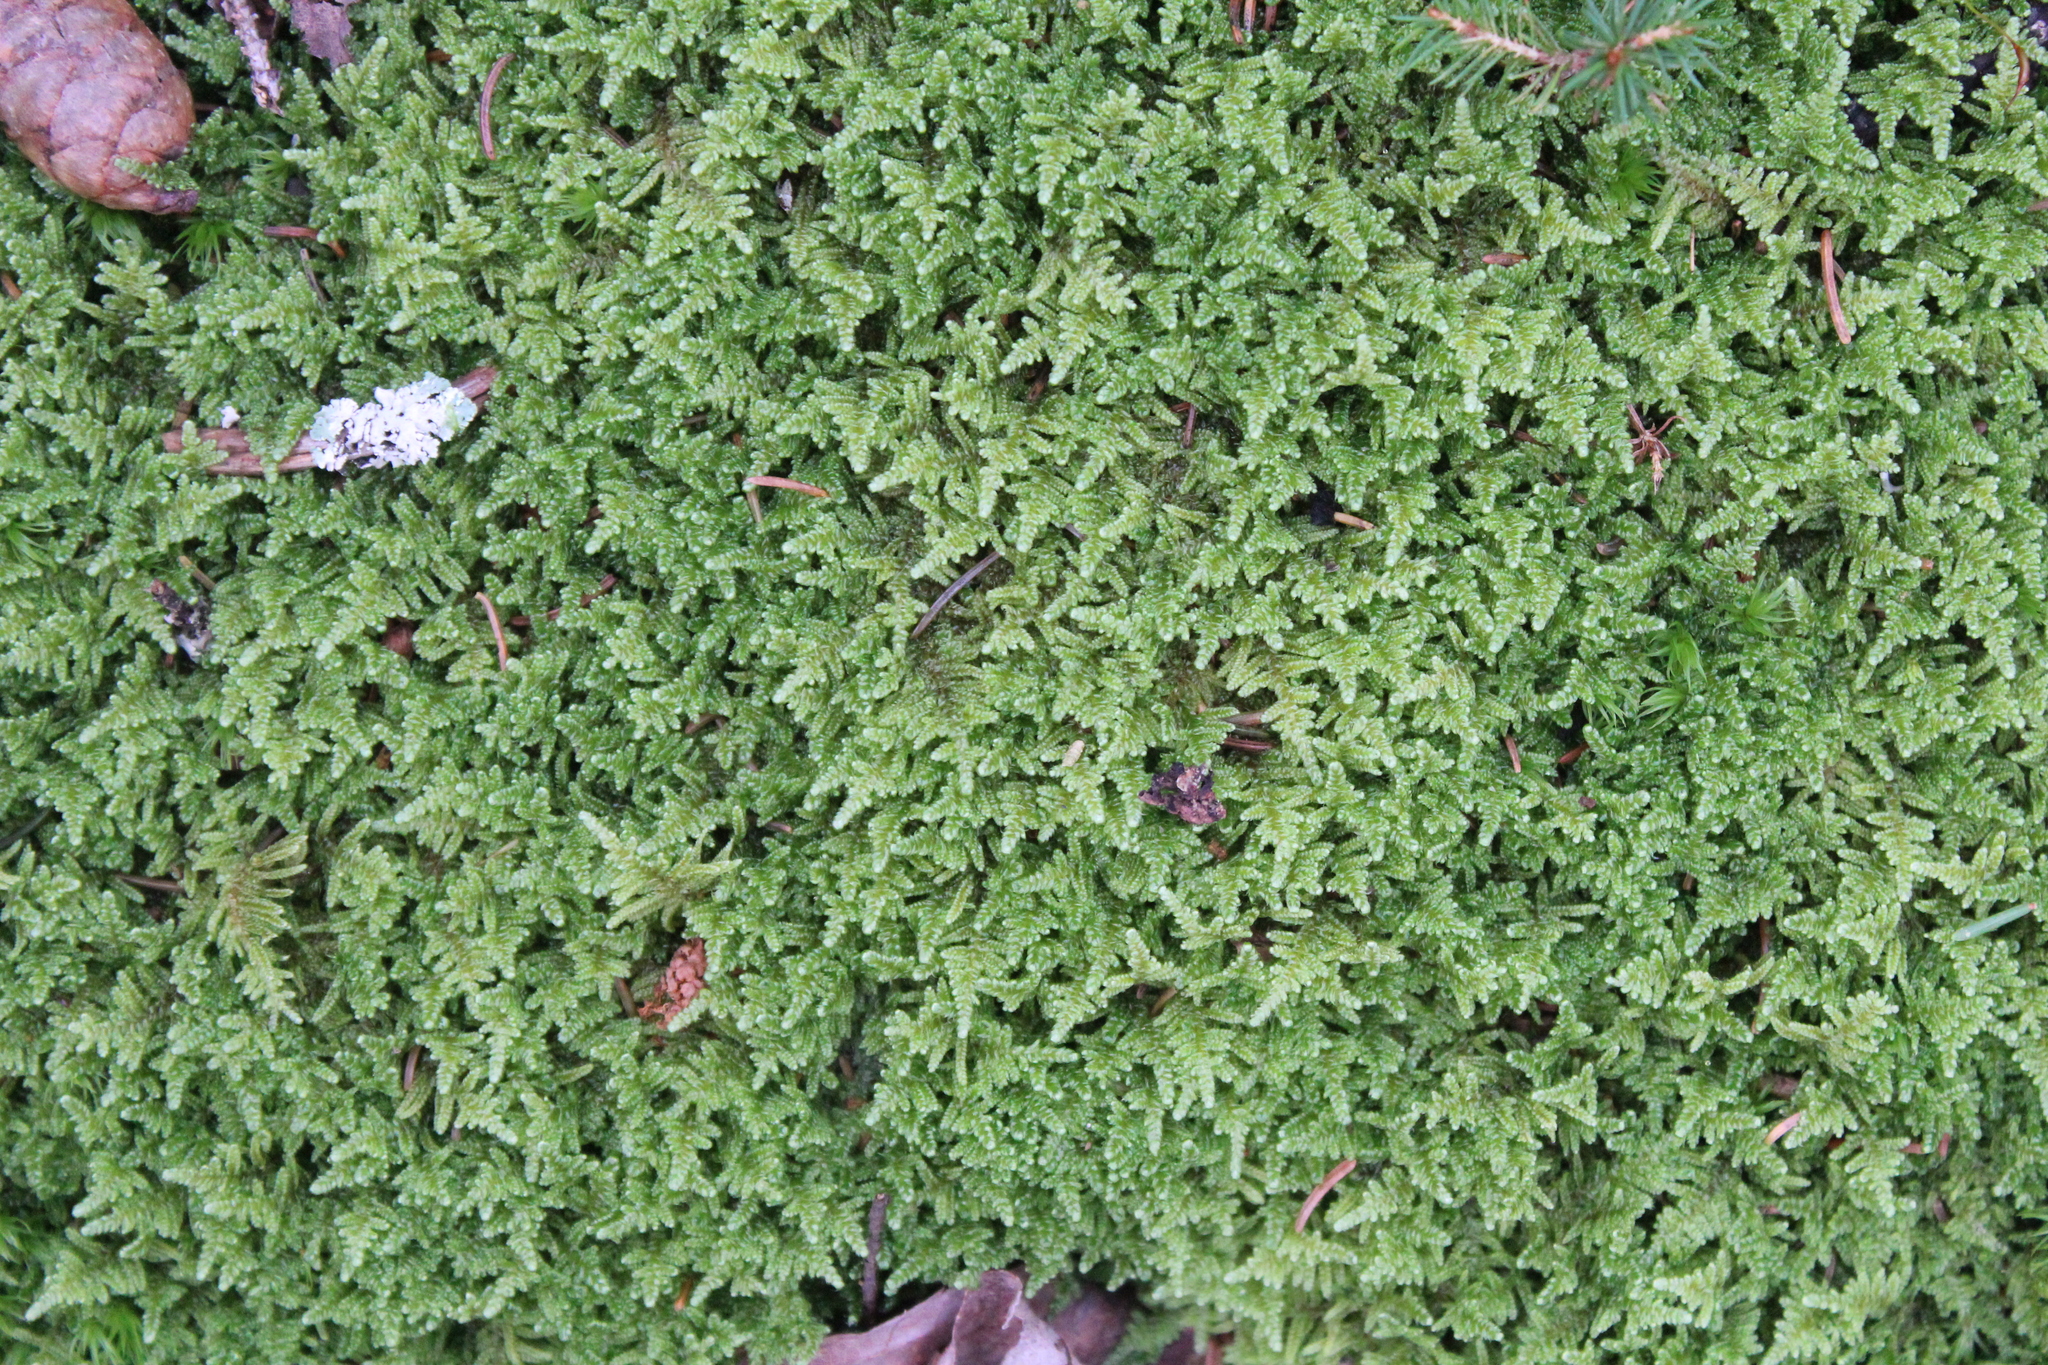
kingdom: Plantae
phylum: Bryophyta
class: Bryopsida
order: Hypnales
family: Callicladiaceae
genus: Callicladium
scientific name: Callicladium imponens
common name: Brocade moss
